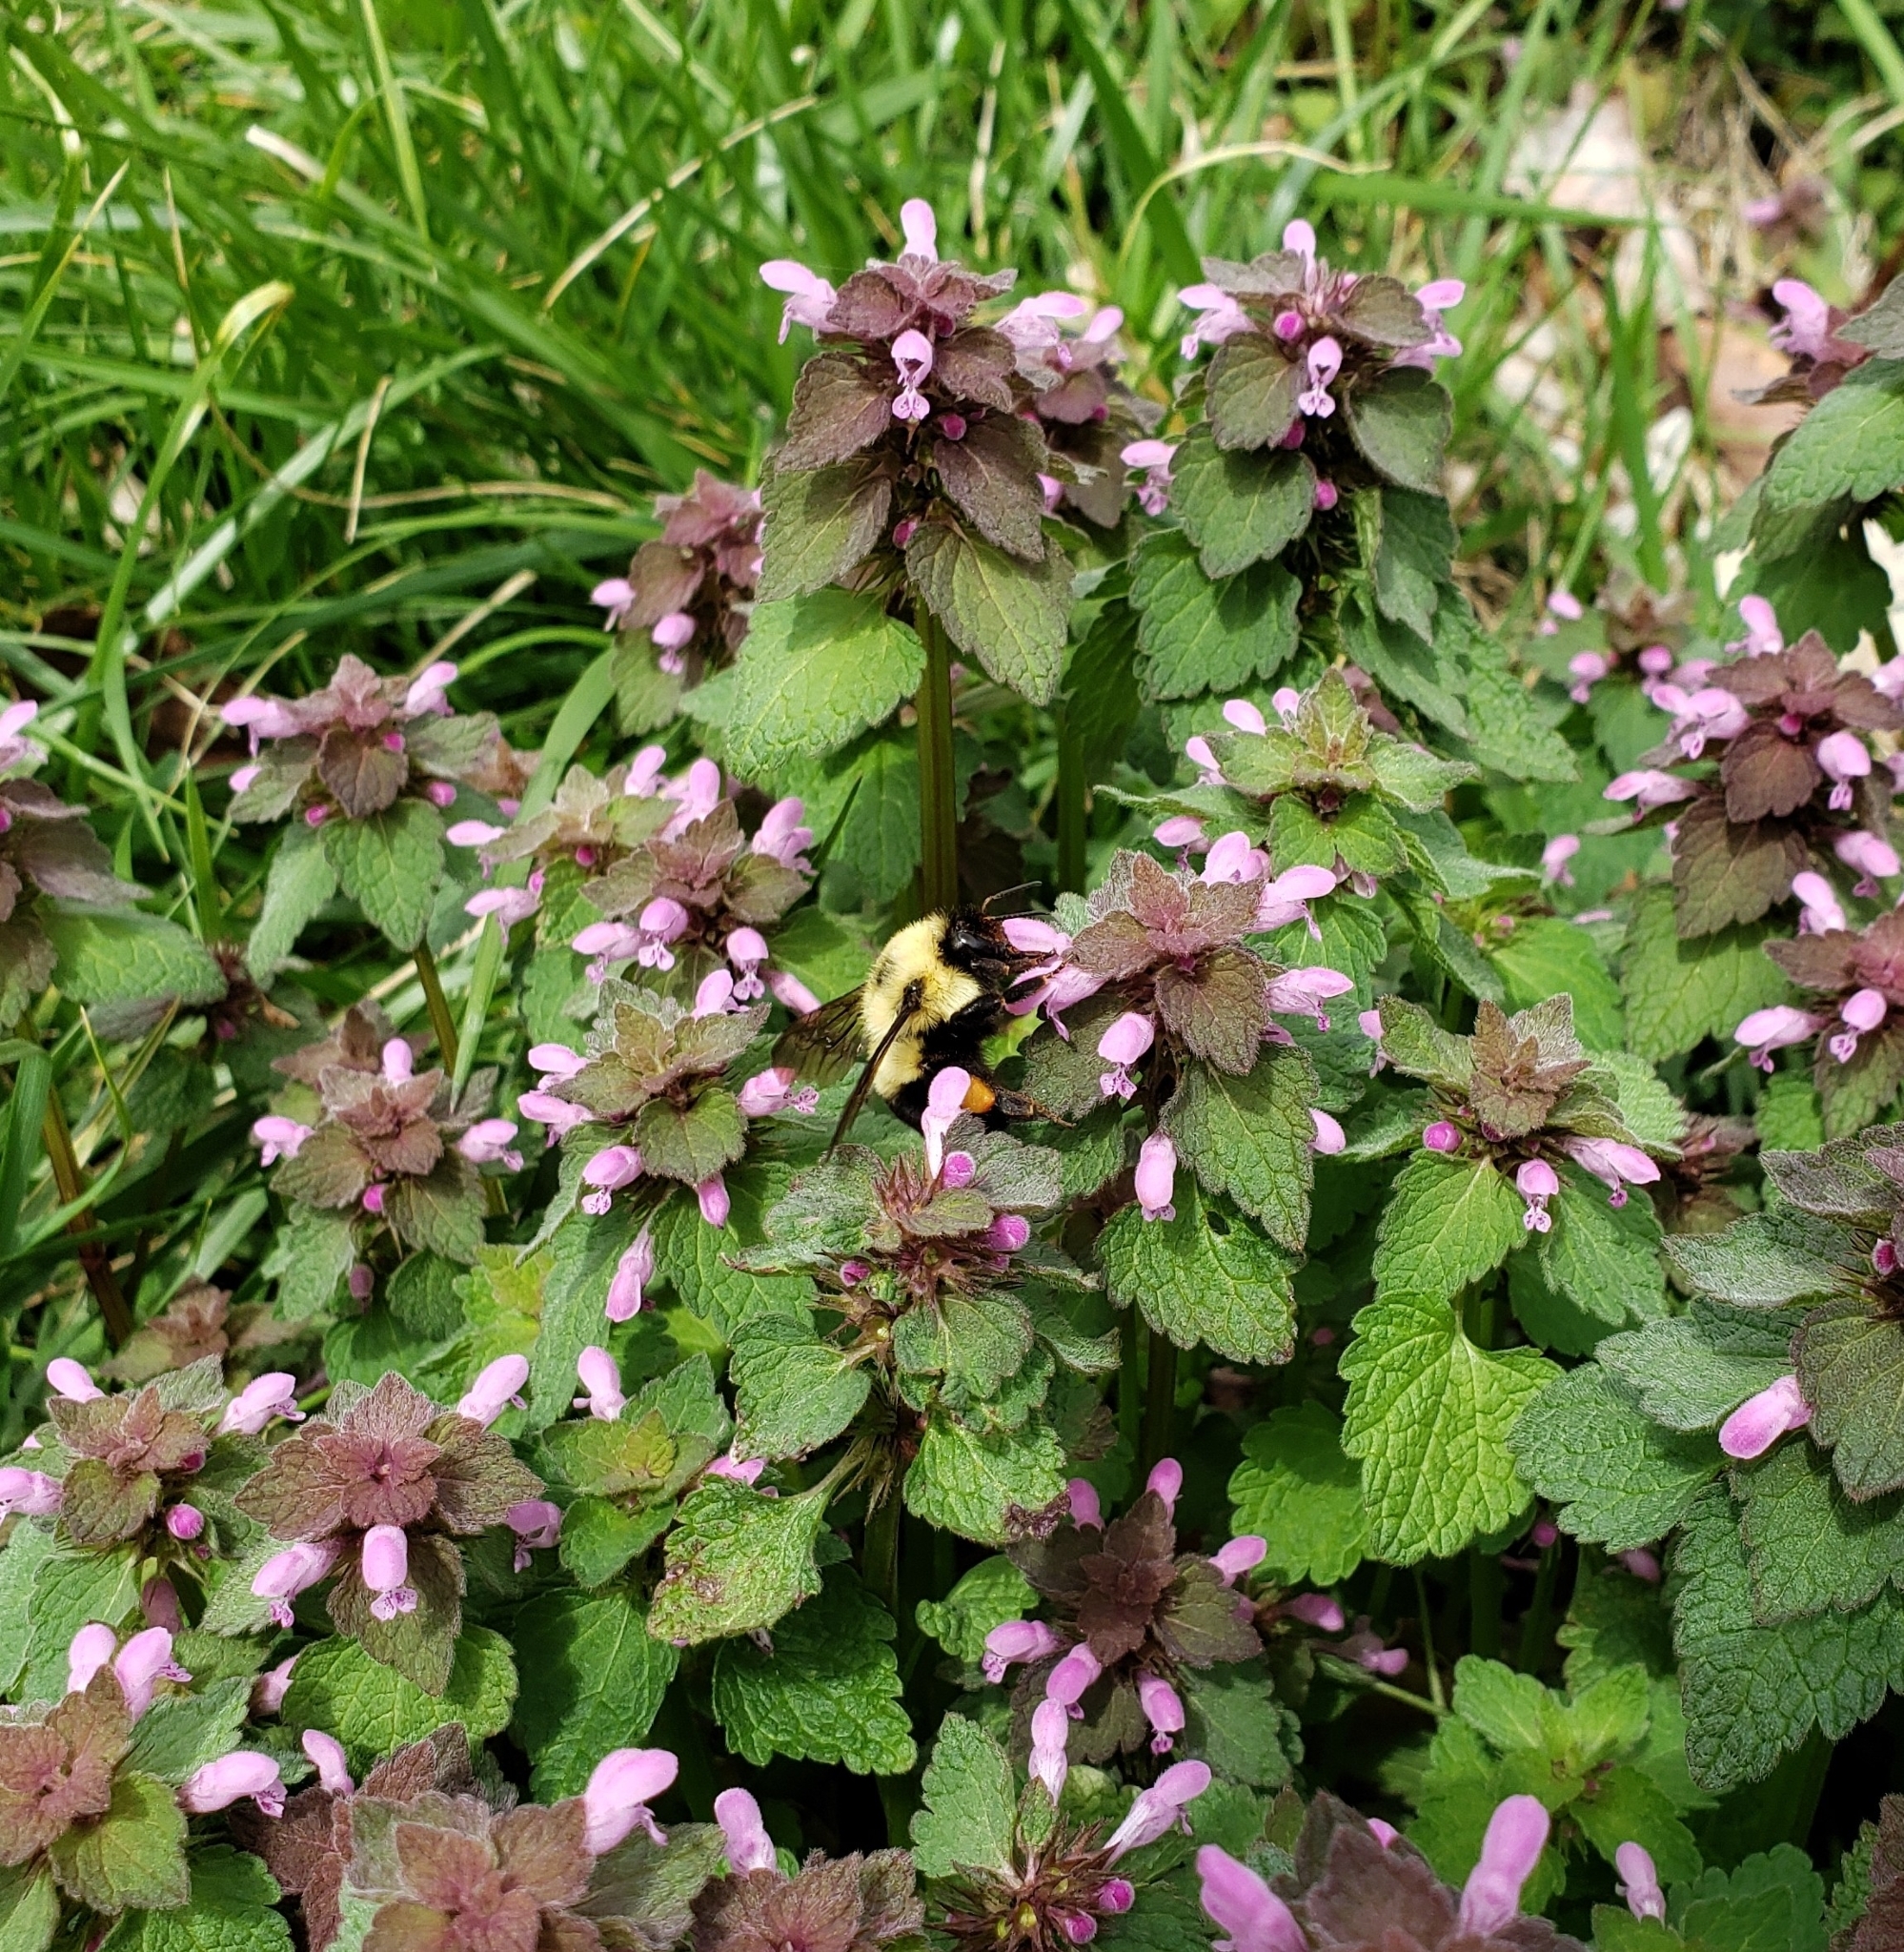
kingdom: Animalia
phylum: Arthropoda
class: Insecta
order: Hymenoptera
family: Apidae
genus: Bombus
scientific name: Bombus bimaculatus
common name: Two-spotted bumble bee
